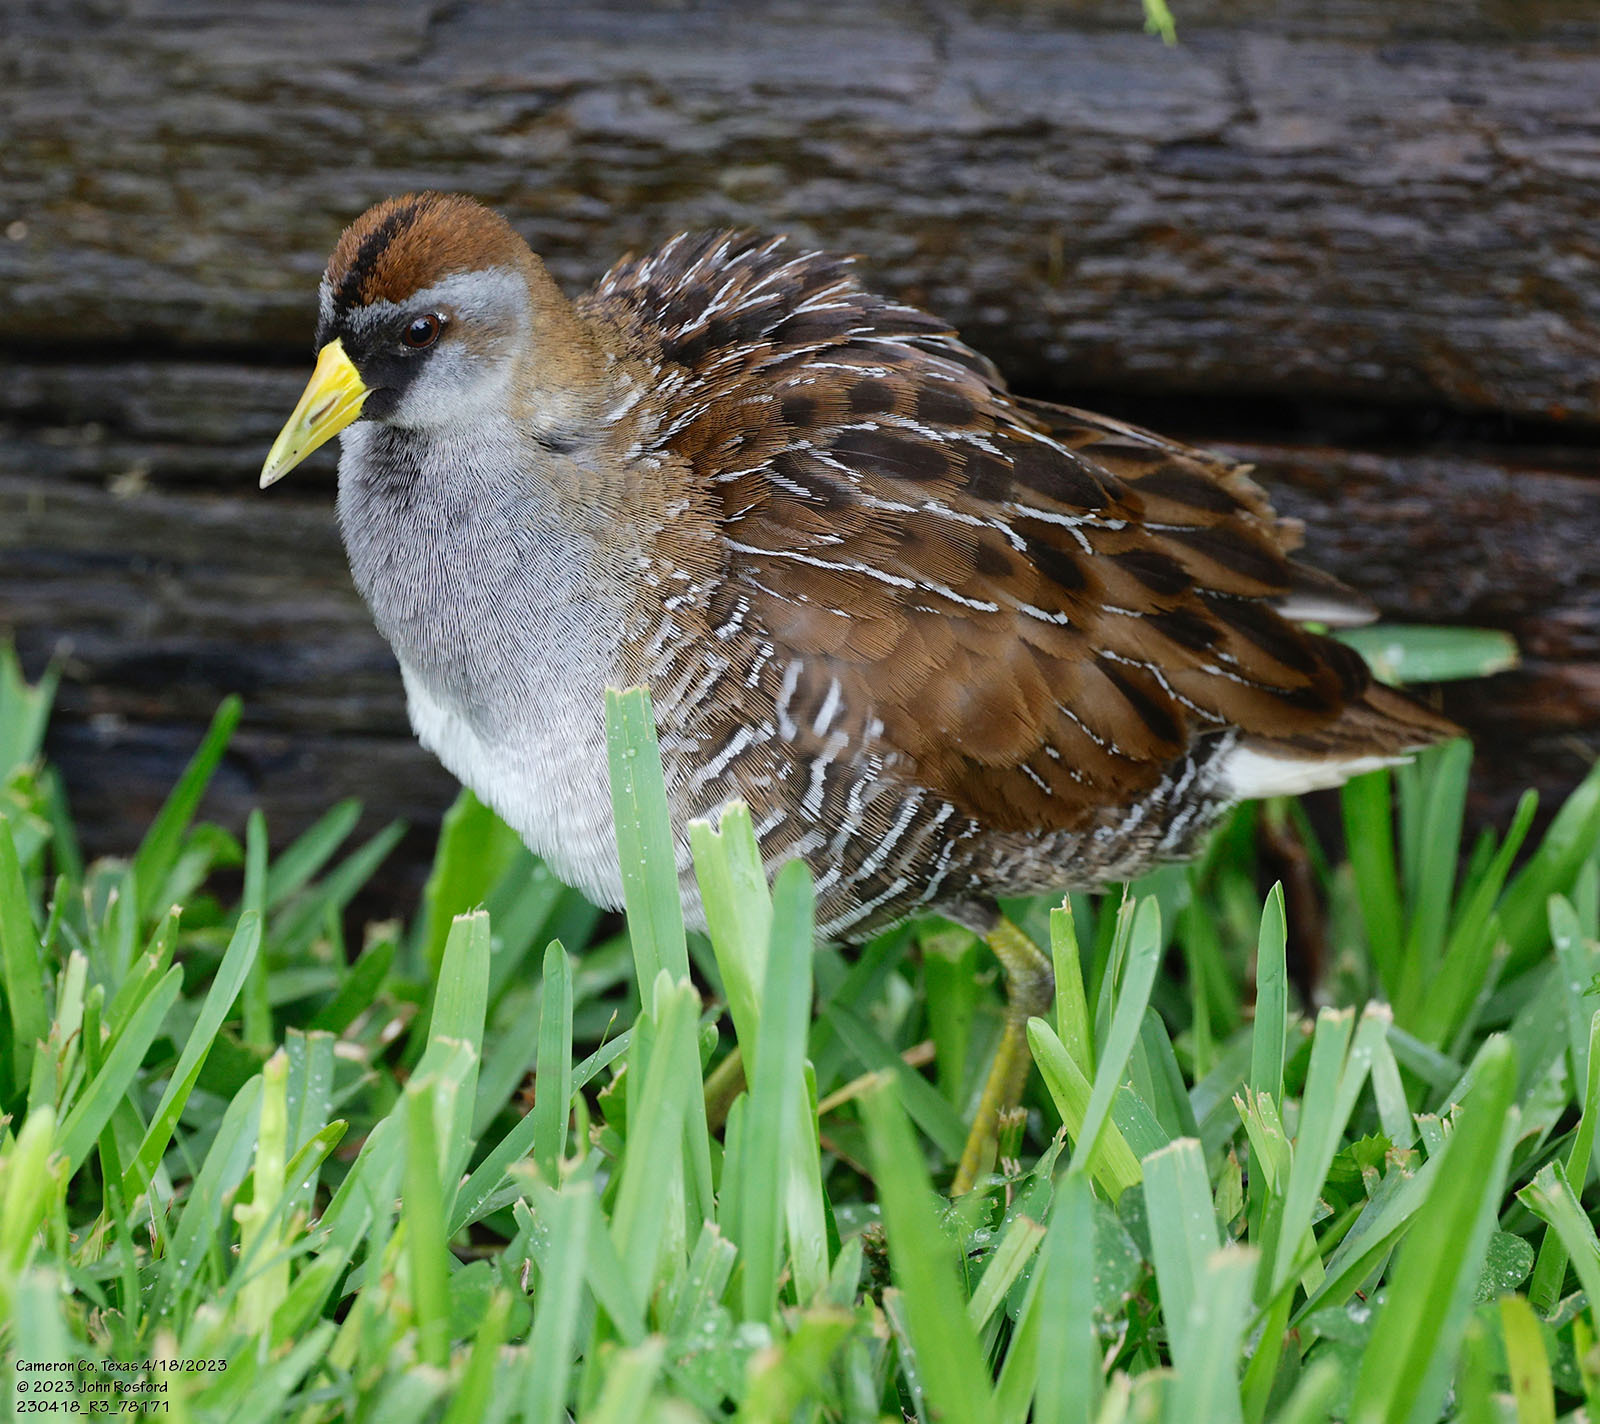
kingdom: Animalia
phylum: Chordata
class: Aves
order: Gruiformes
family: Rallidae
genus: Porzana
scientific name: Porzana carolina
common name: Sora
